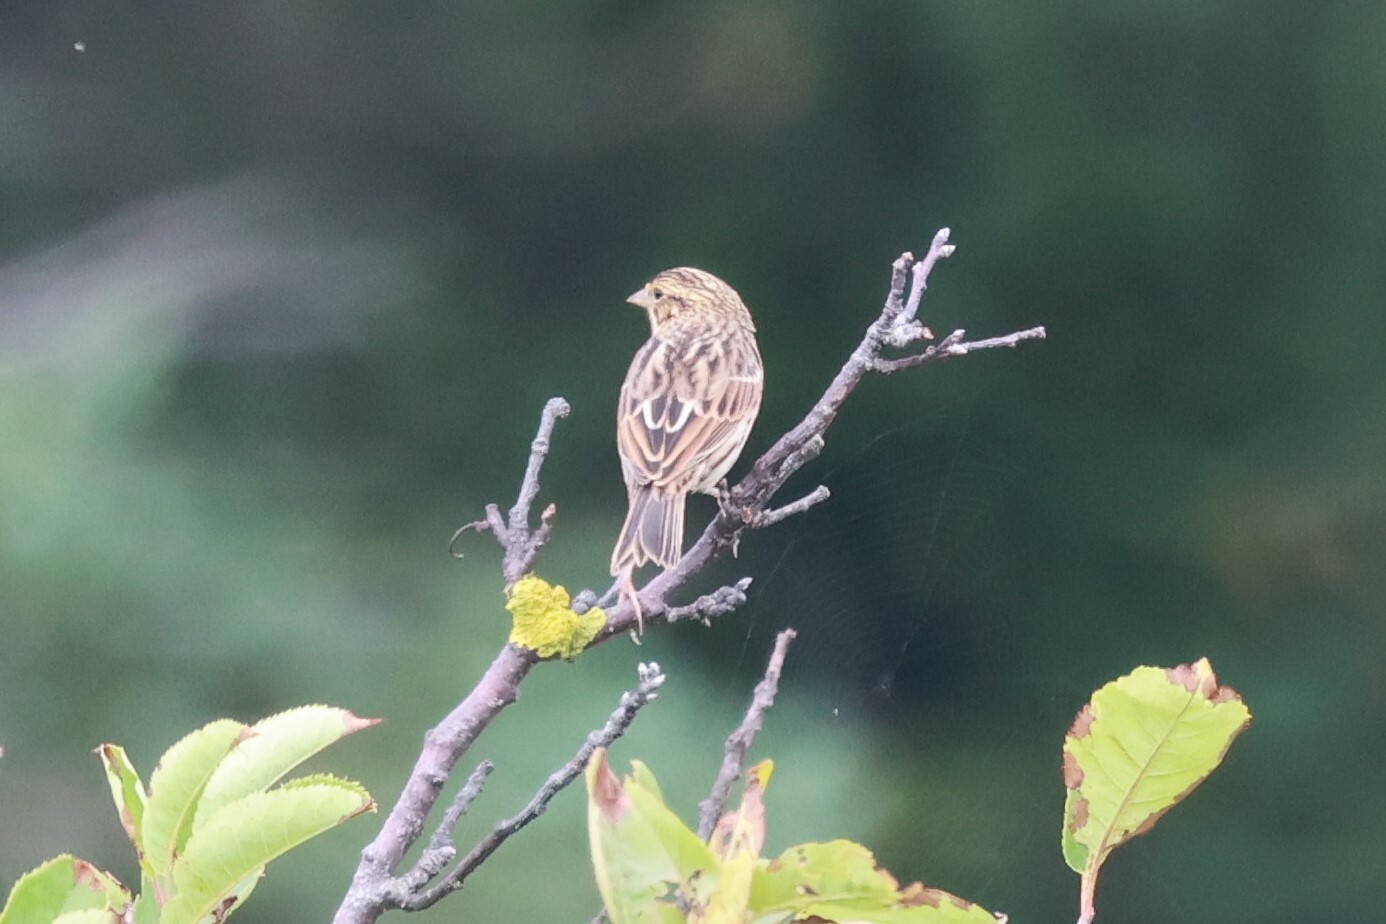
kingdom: Animalia
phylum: Chordata
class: Aves
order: Passeriformes
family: Passerellidae
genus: Passerculus
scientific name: Passerculus sandwichensis
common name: Savannah sparrow
